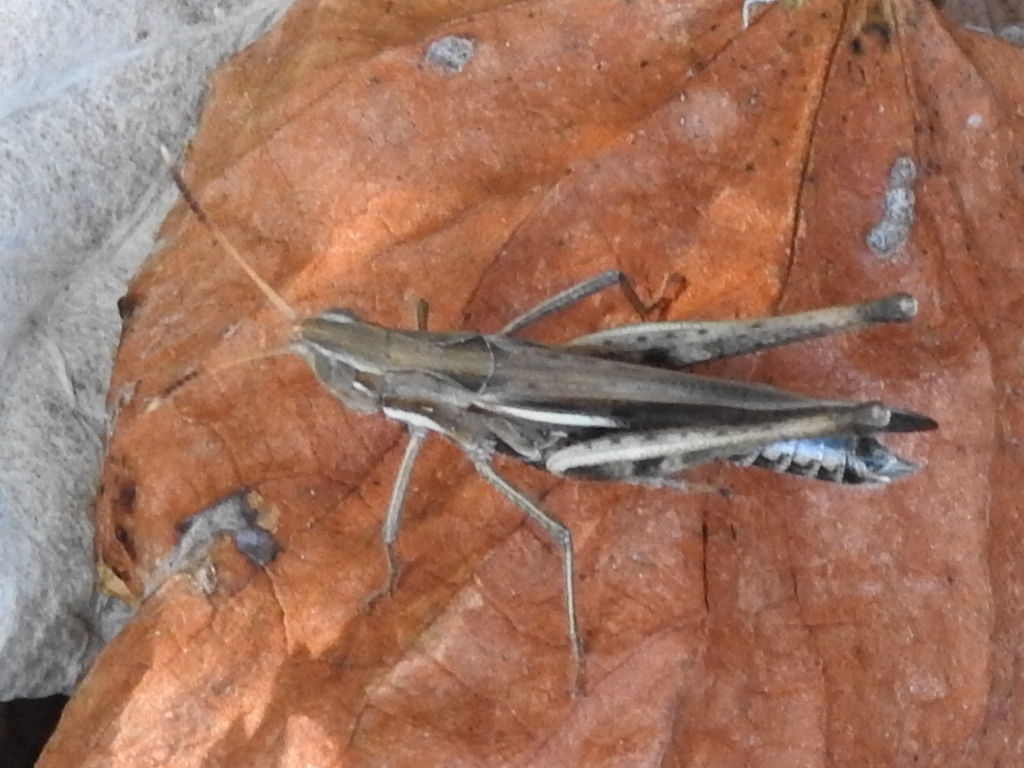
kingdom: Animalia
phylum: Arthropoda
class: Insecta
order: Orthoptera
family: Acrididae
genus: Syrbula
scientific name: Syrbula montezuma
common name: Montezuma's grasshopper
